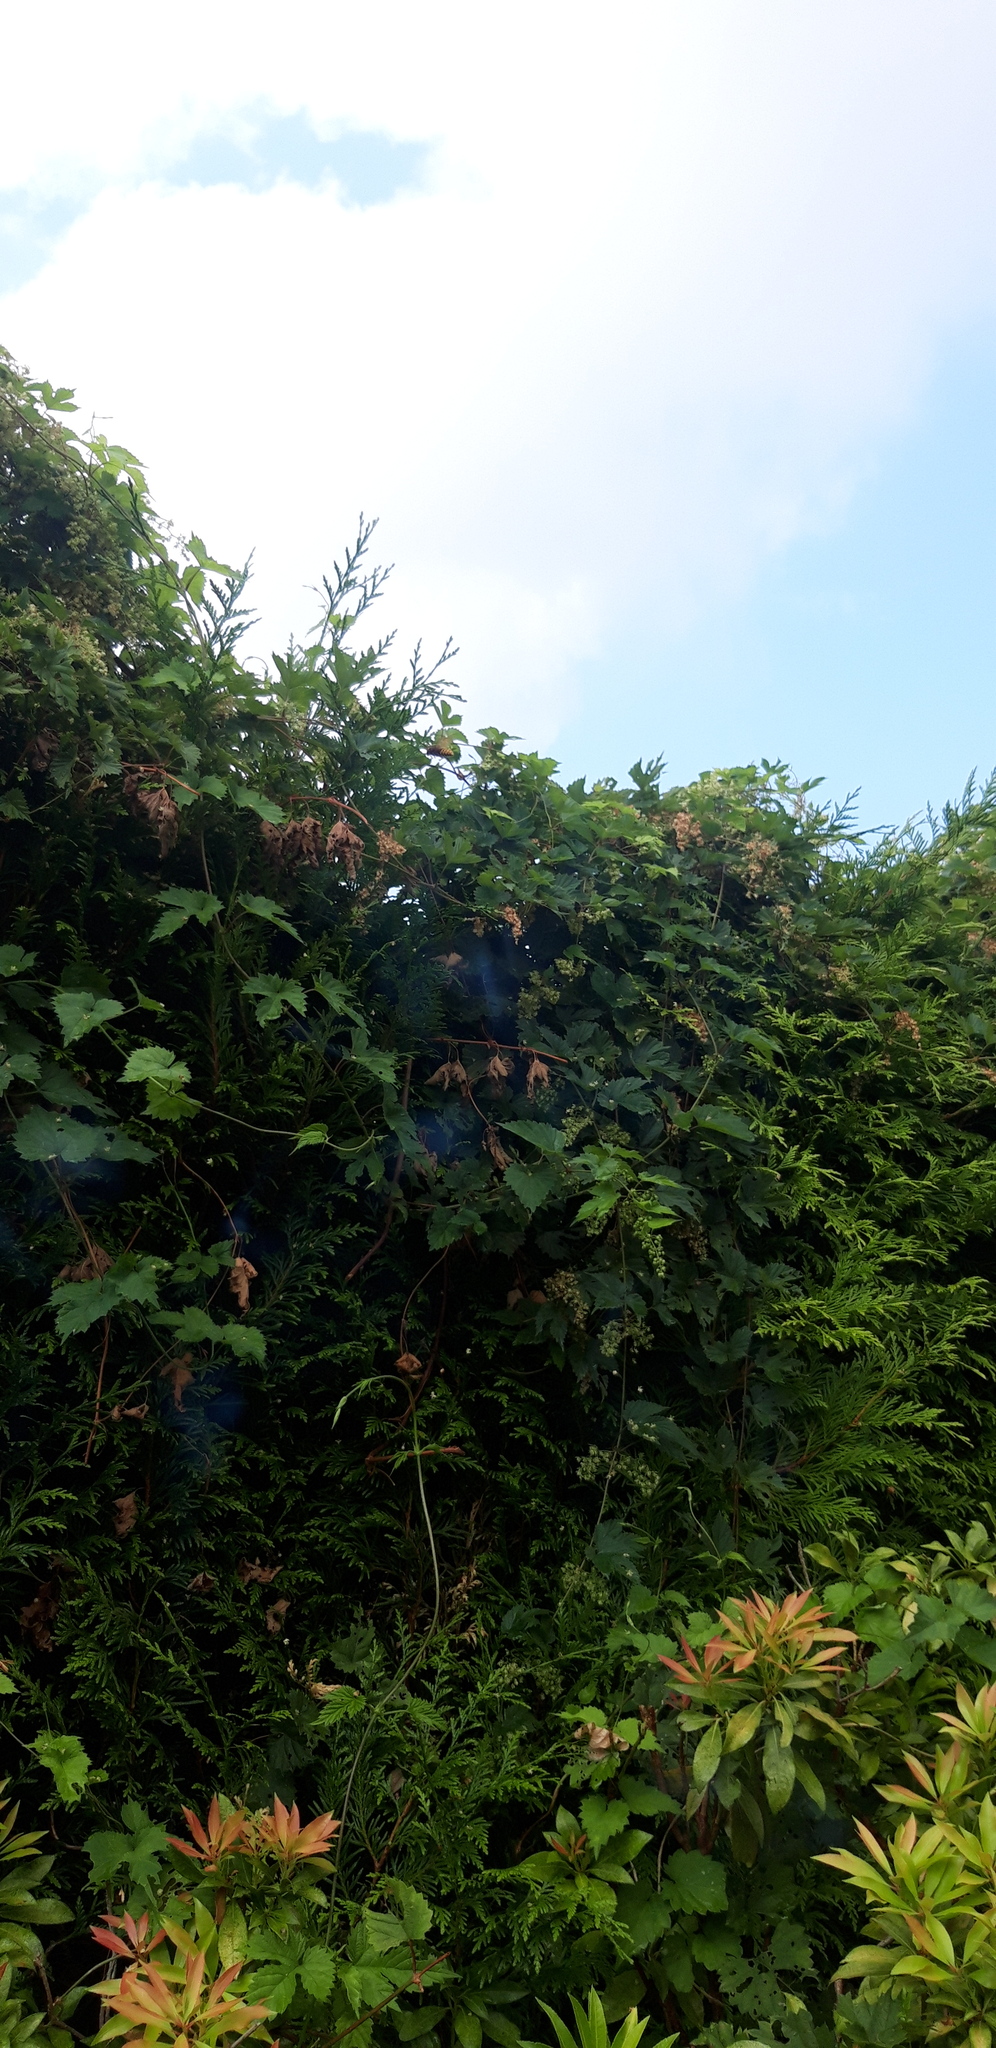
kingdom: Animalia
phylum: Arthropoda
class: Insecta
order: Hymenoptera
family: Vespidae
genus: Vespa
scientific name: Vespa crabro
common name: Hornet
